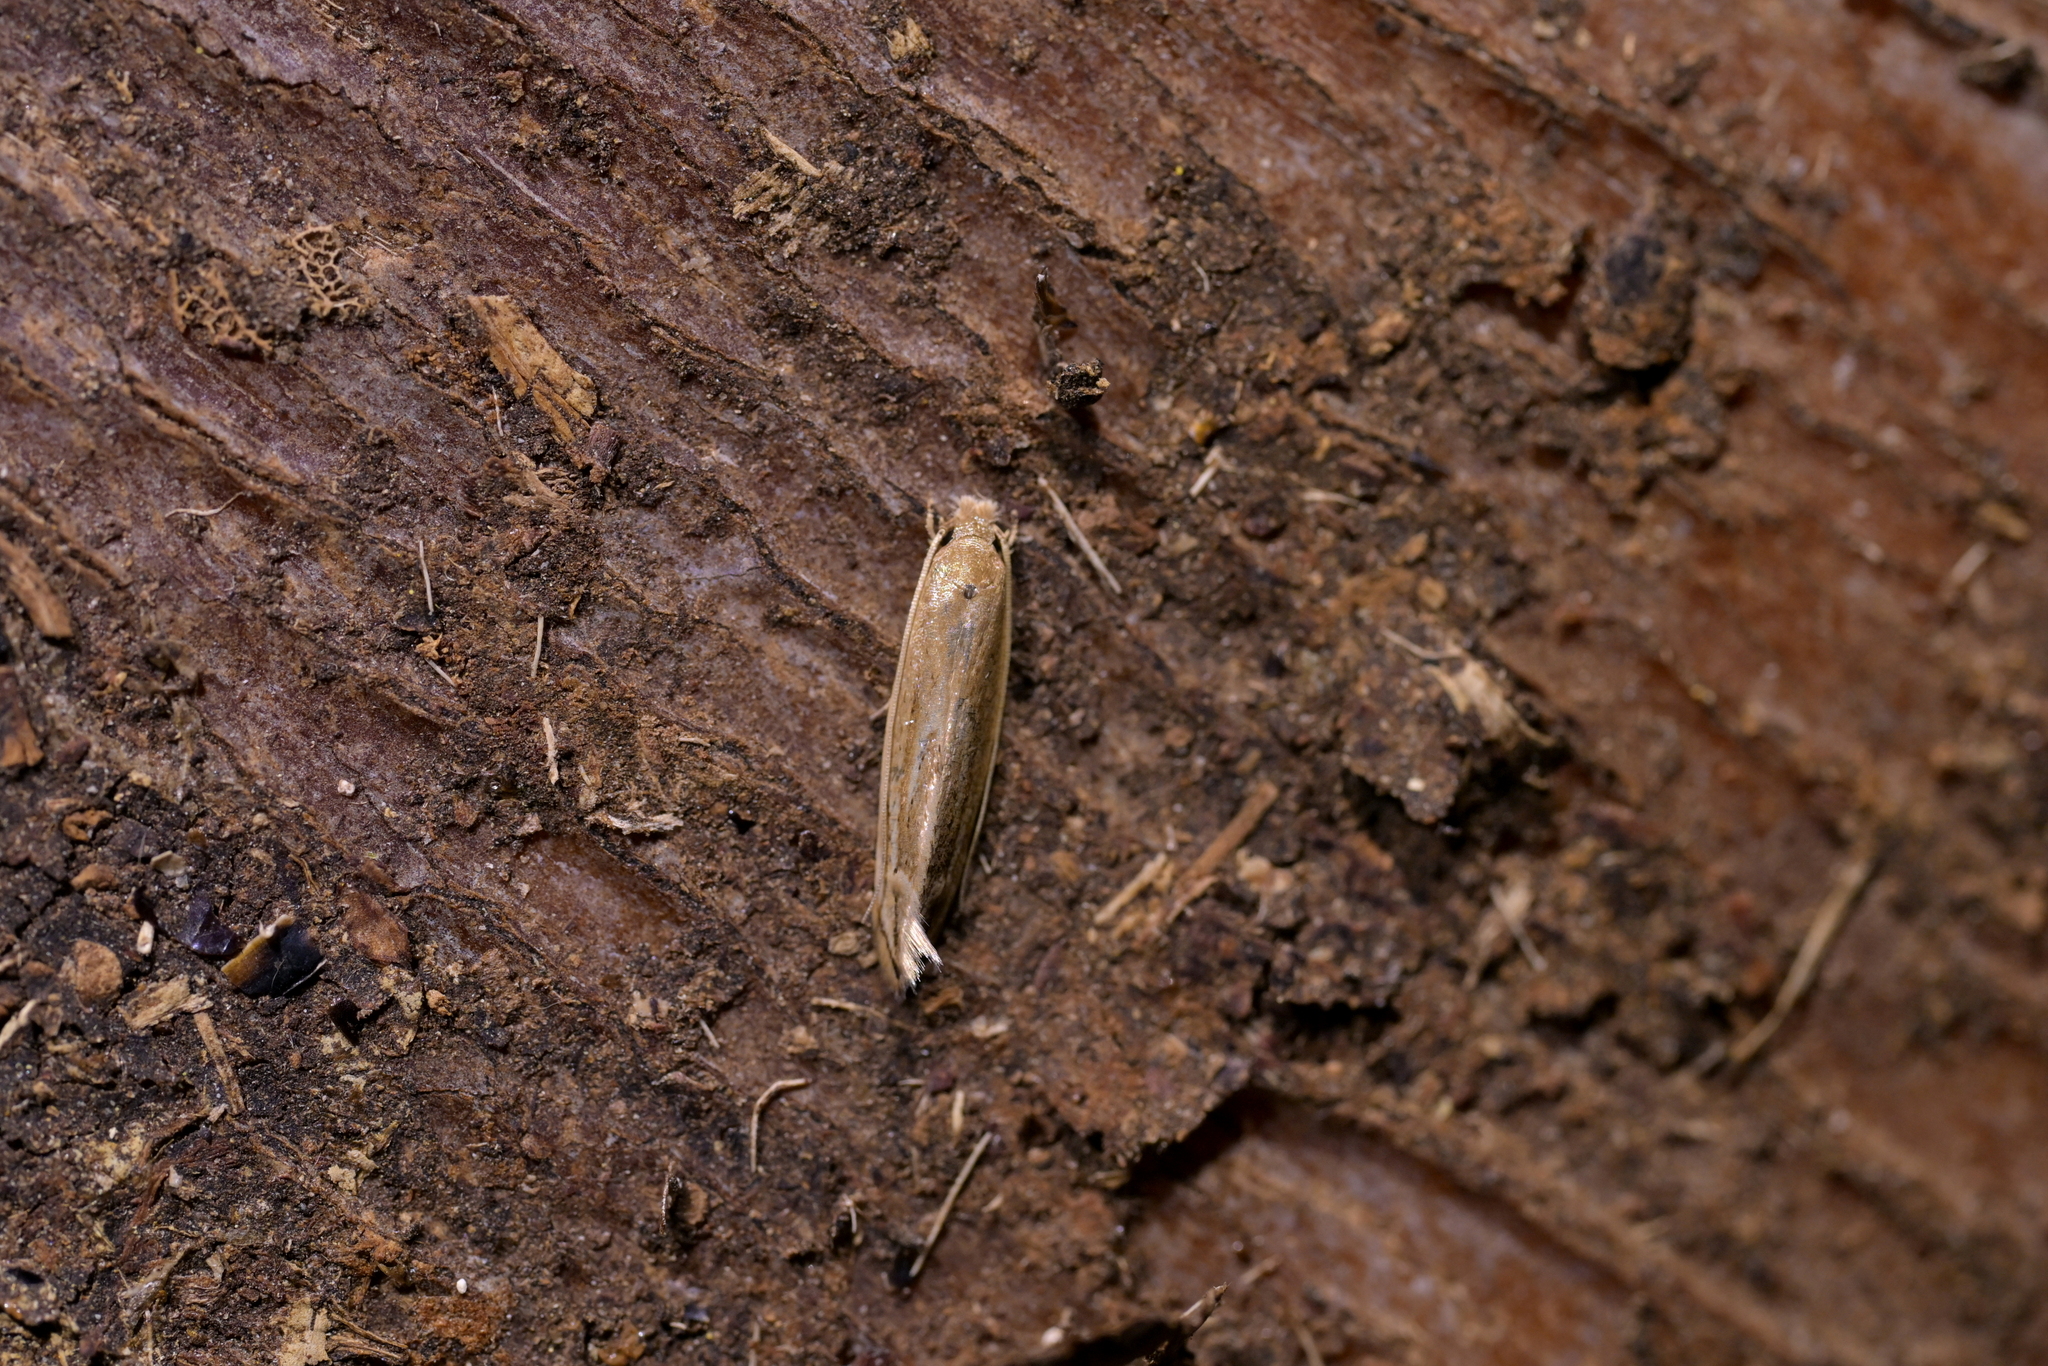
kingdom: Animalia
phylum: Arthropoda
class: Insecta
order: Lepidoptera
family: Tineidae
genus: Amphixystis
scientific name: Amphixystis hapsimacha
